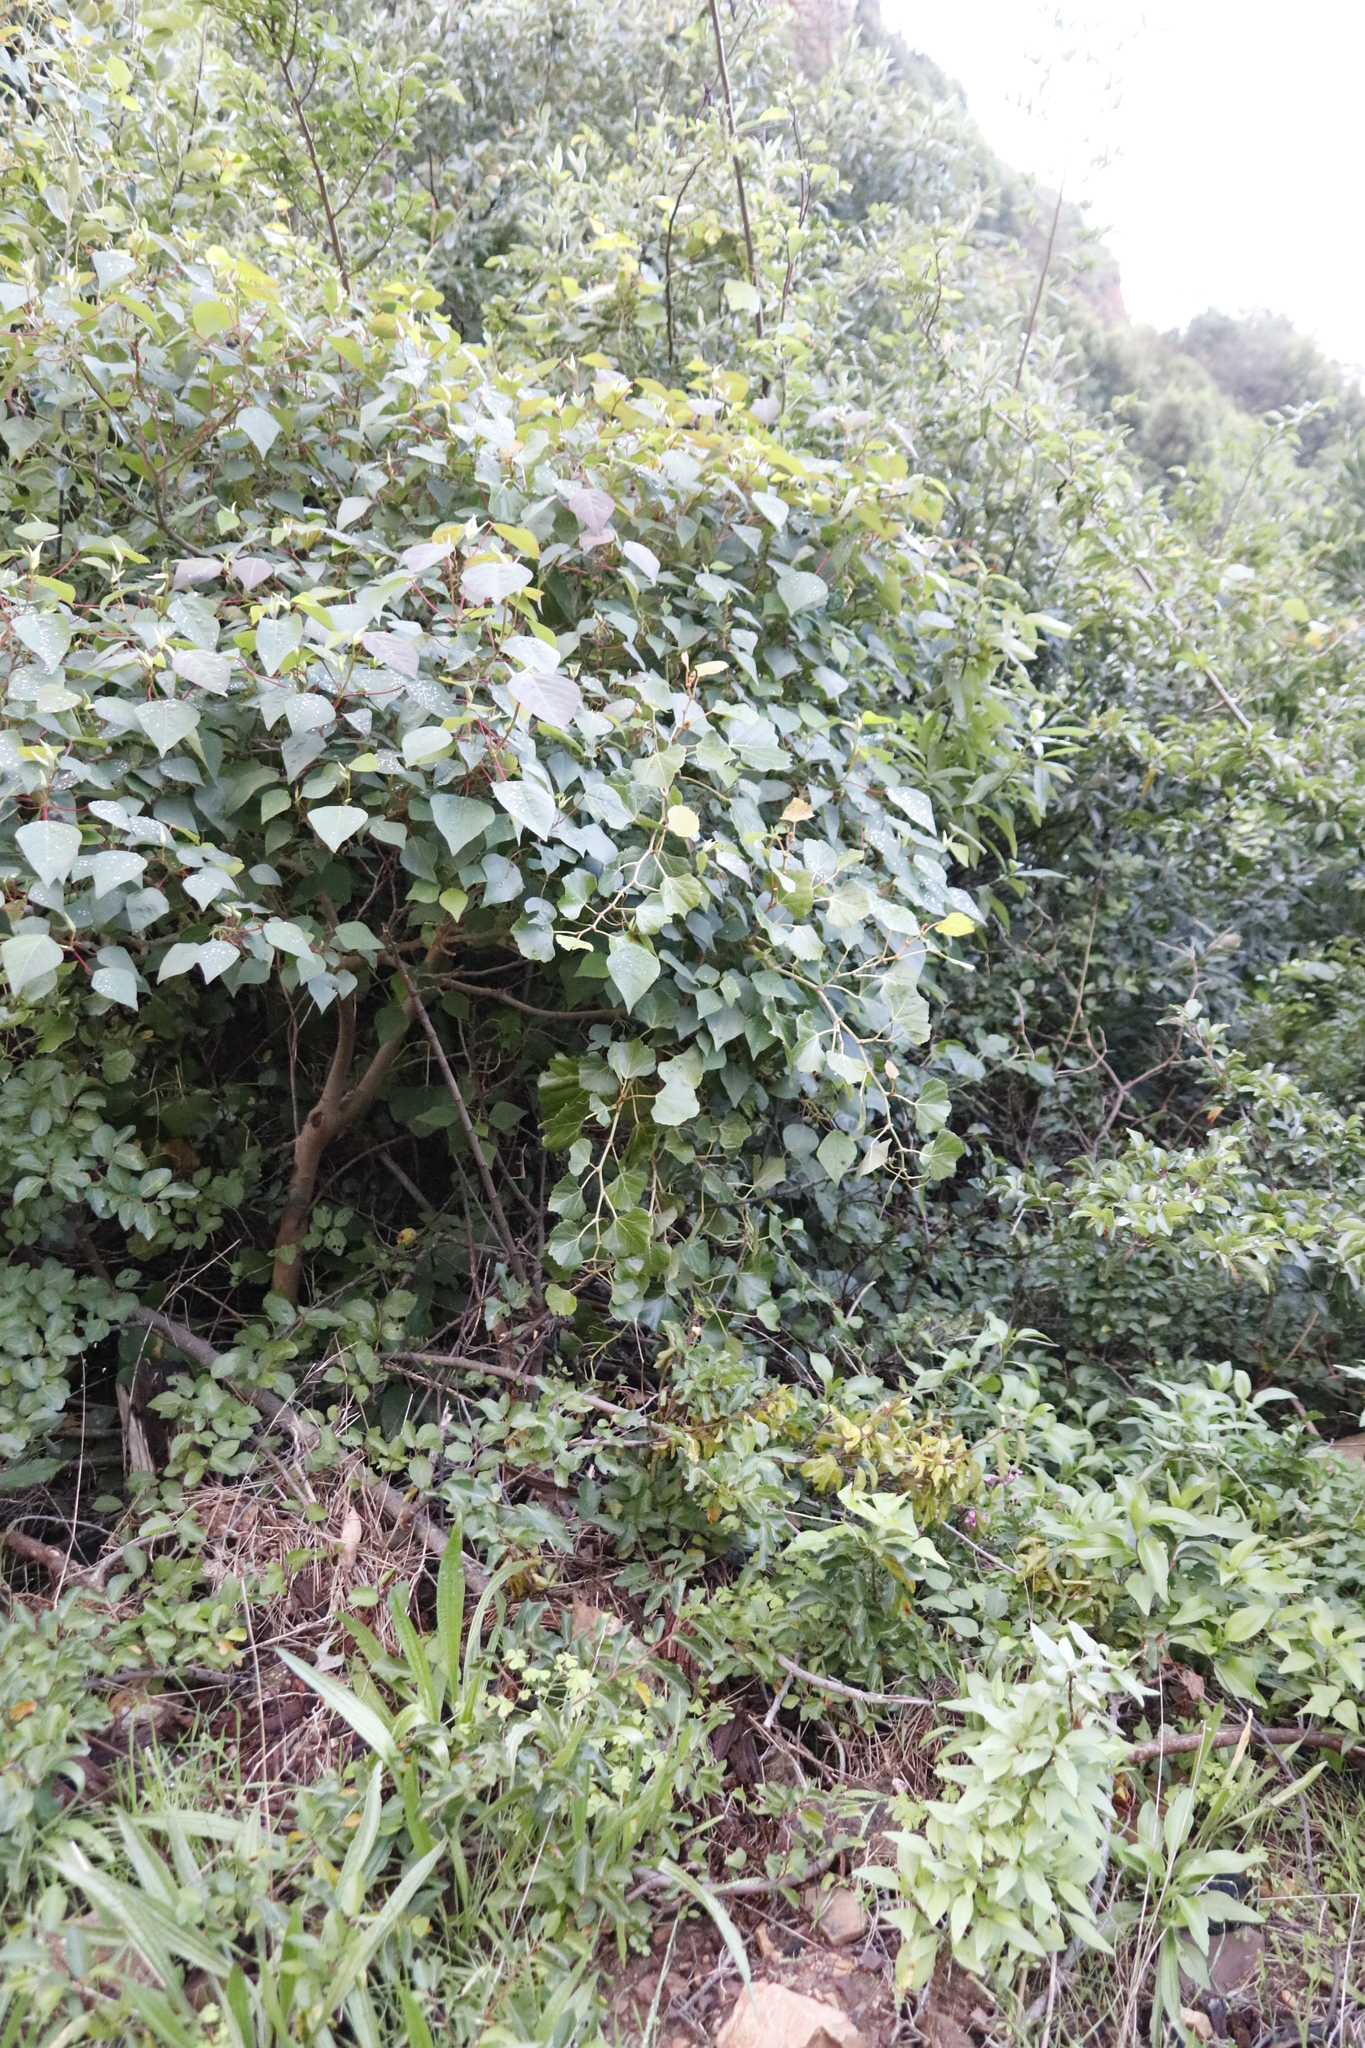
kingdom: Plantae
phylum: Tracheophyta
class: Magnoliopsida
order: Malpighiales
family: Euphorbiaceae
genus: Homalanthus
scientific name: Homalanthus populifolius
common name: Queensland poplar
